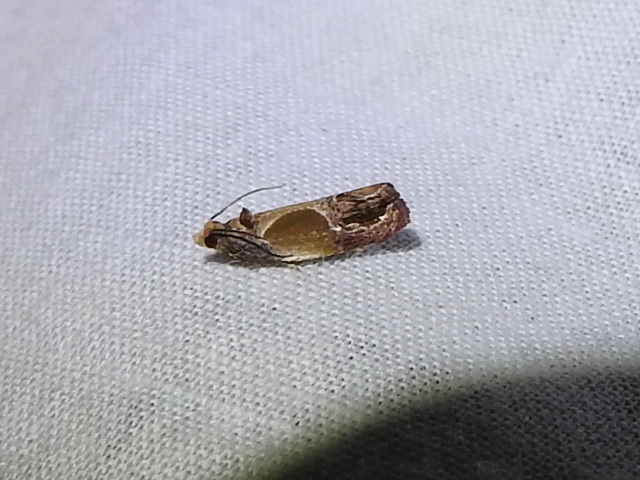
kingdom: Animalia
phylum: Arthropoda
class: Insecta
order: Lepidoptera
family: Tortricidae
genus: Eumarozia
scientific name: Eumarozia malachitana
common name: Sculptured moth
